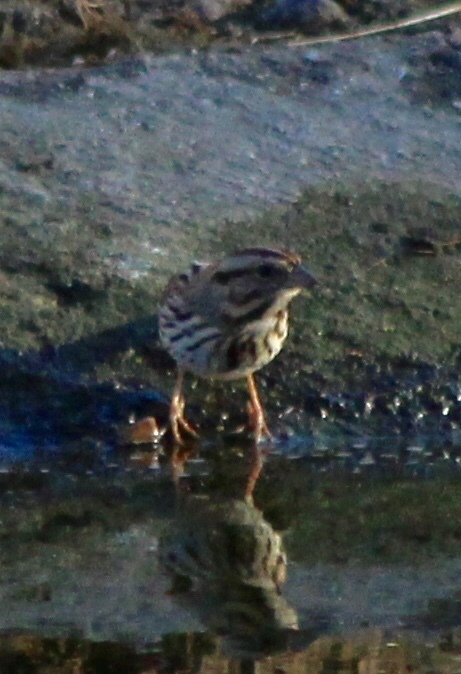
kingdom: Animalia
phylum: Chordata
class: Aves
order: Passeriformes
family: Passerellidae
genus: Melospiza
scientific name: Melospiza melodia
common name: Song sparrow
